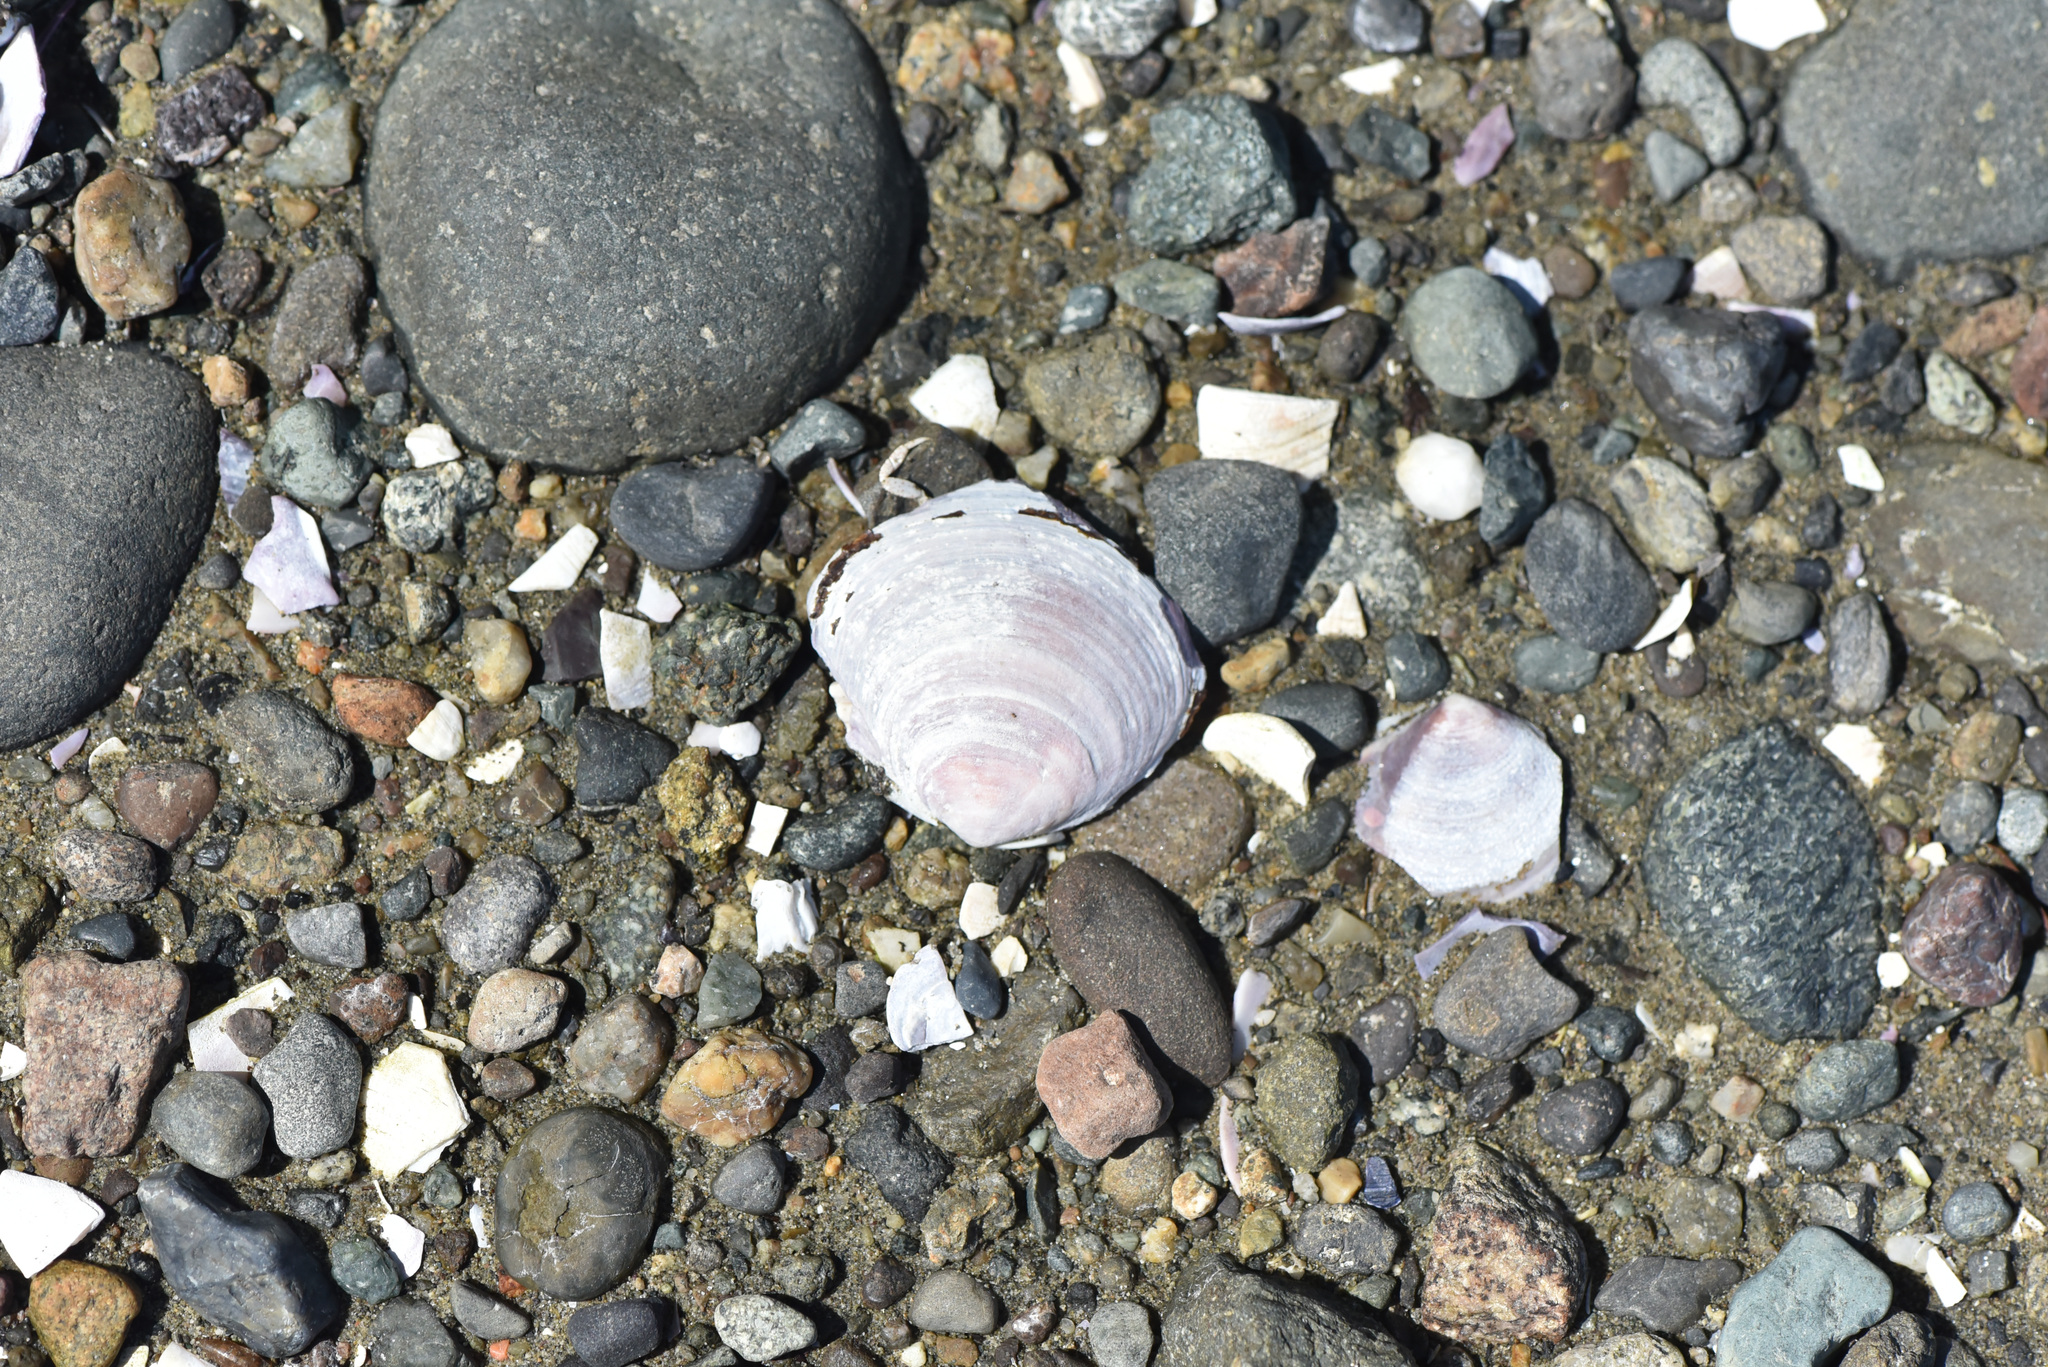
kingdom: Animalia
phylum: Mollusca
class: Bivalvia
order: Cardiida
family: Psammobiidae
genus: Nuttallia
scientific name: Nuttallia obscurata
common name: Purple mahogany-clam
